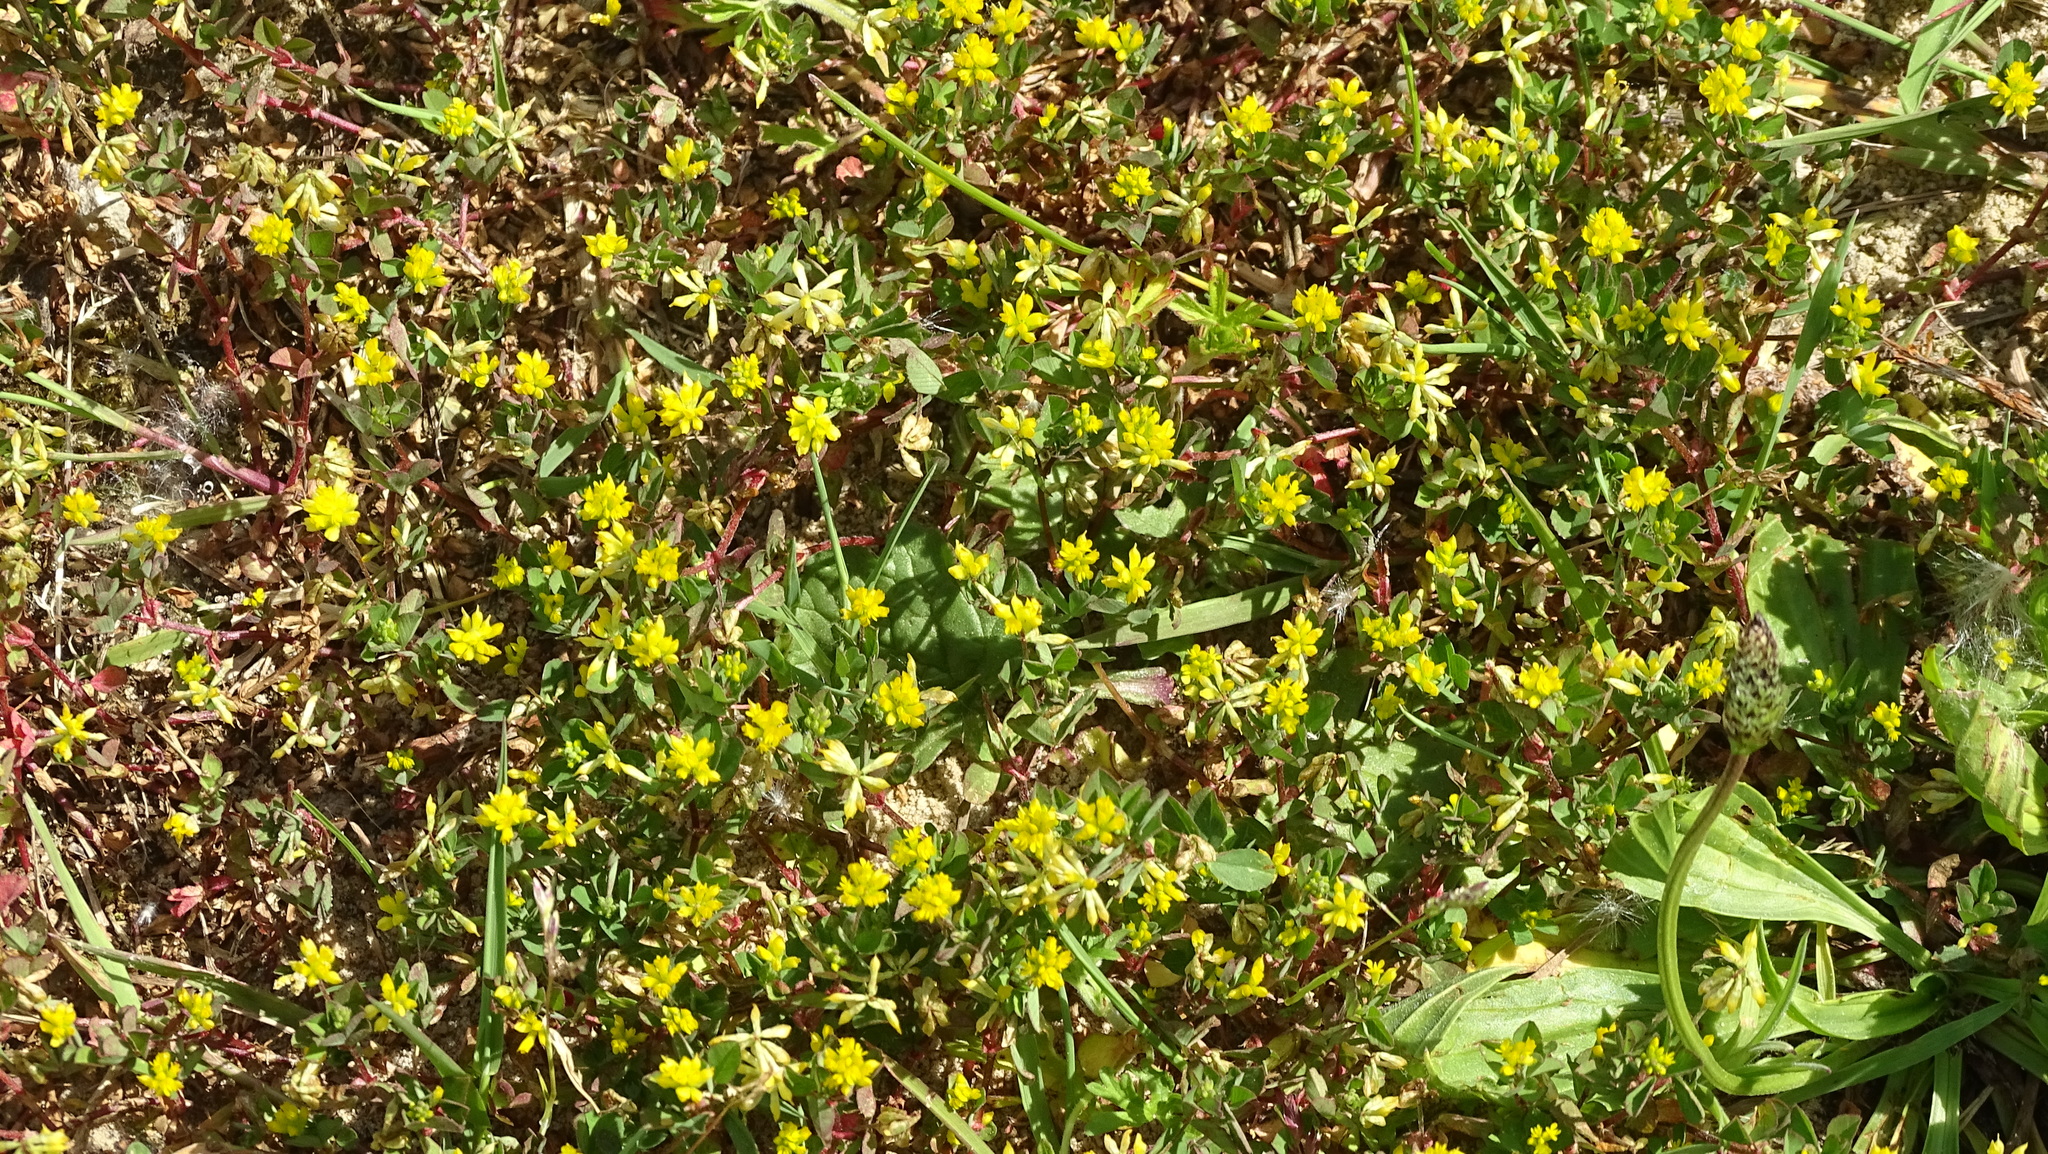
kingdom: Plantae
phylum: Tracheophyta
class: Magnoliopsida
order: Fabales
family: Fabaceae
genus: Trifolium
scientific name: Trifolium dubium
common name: Suckling clover
